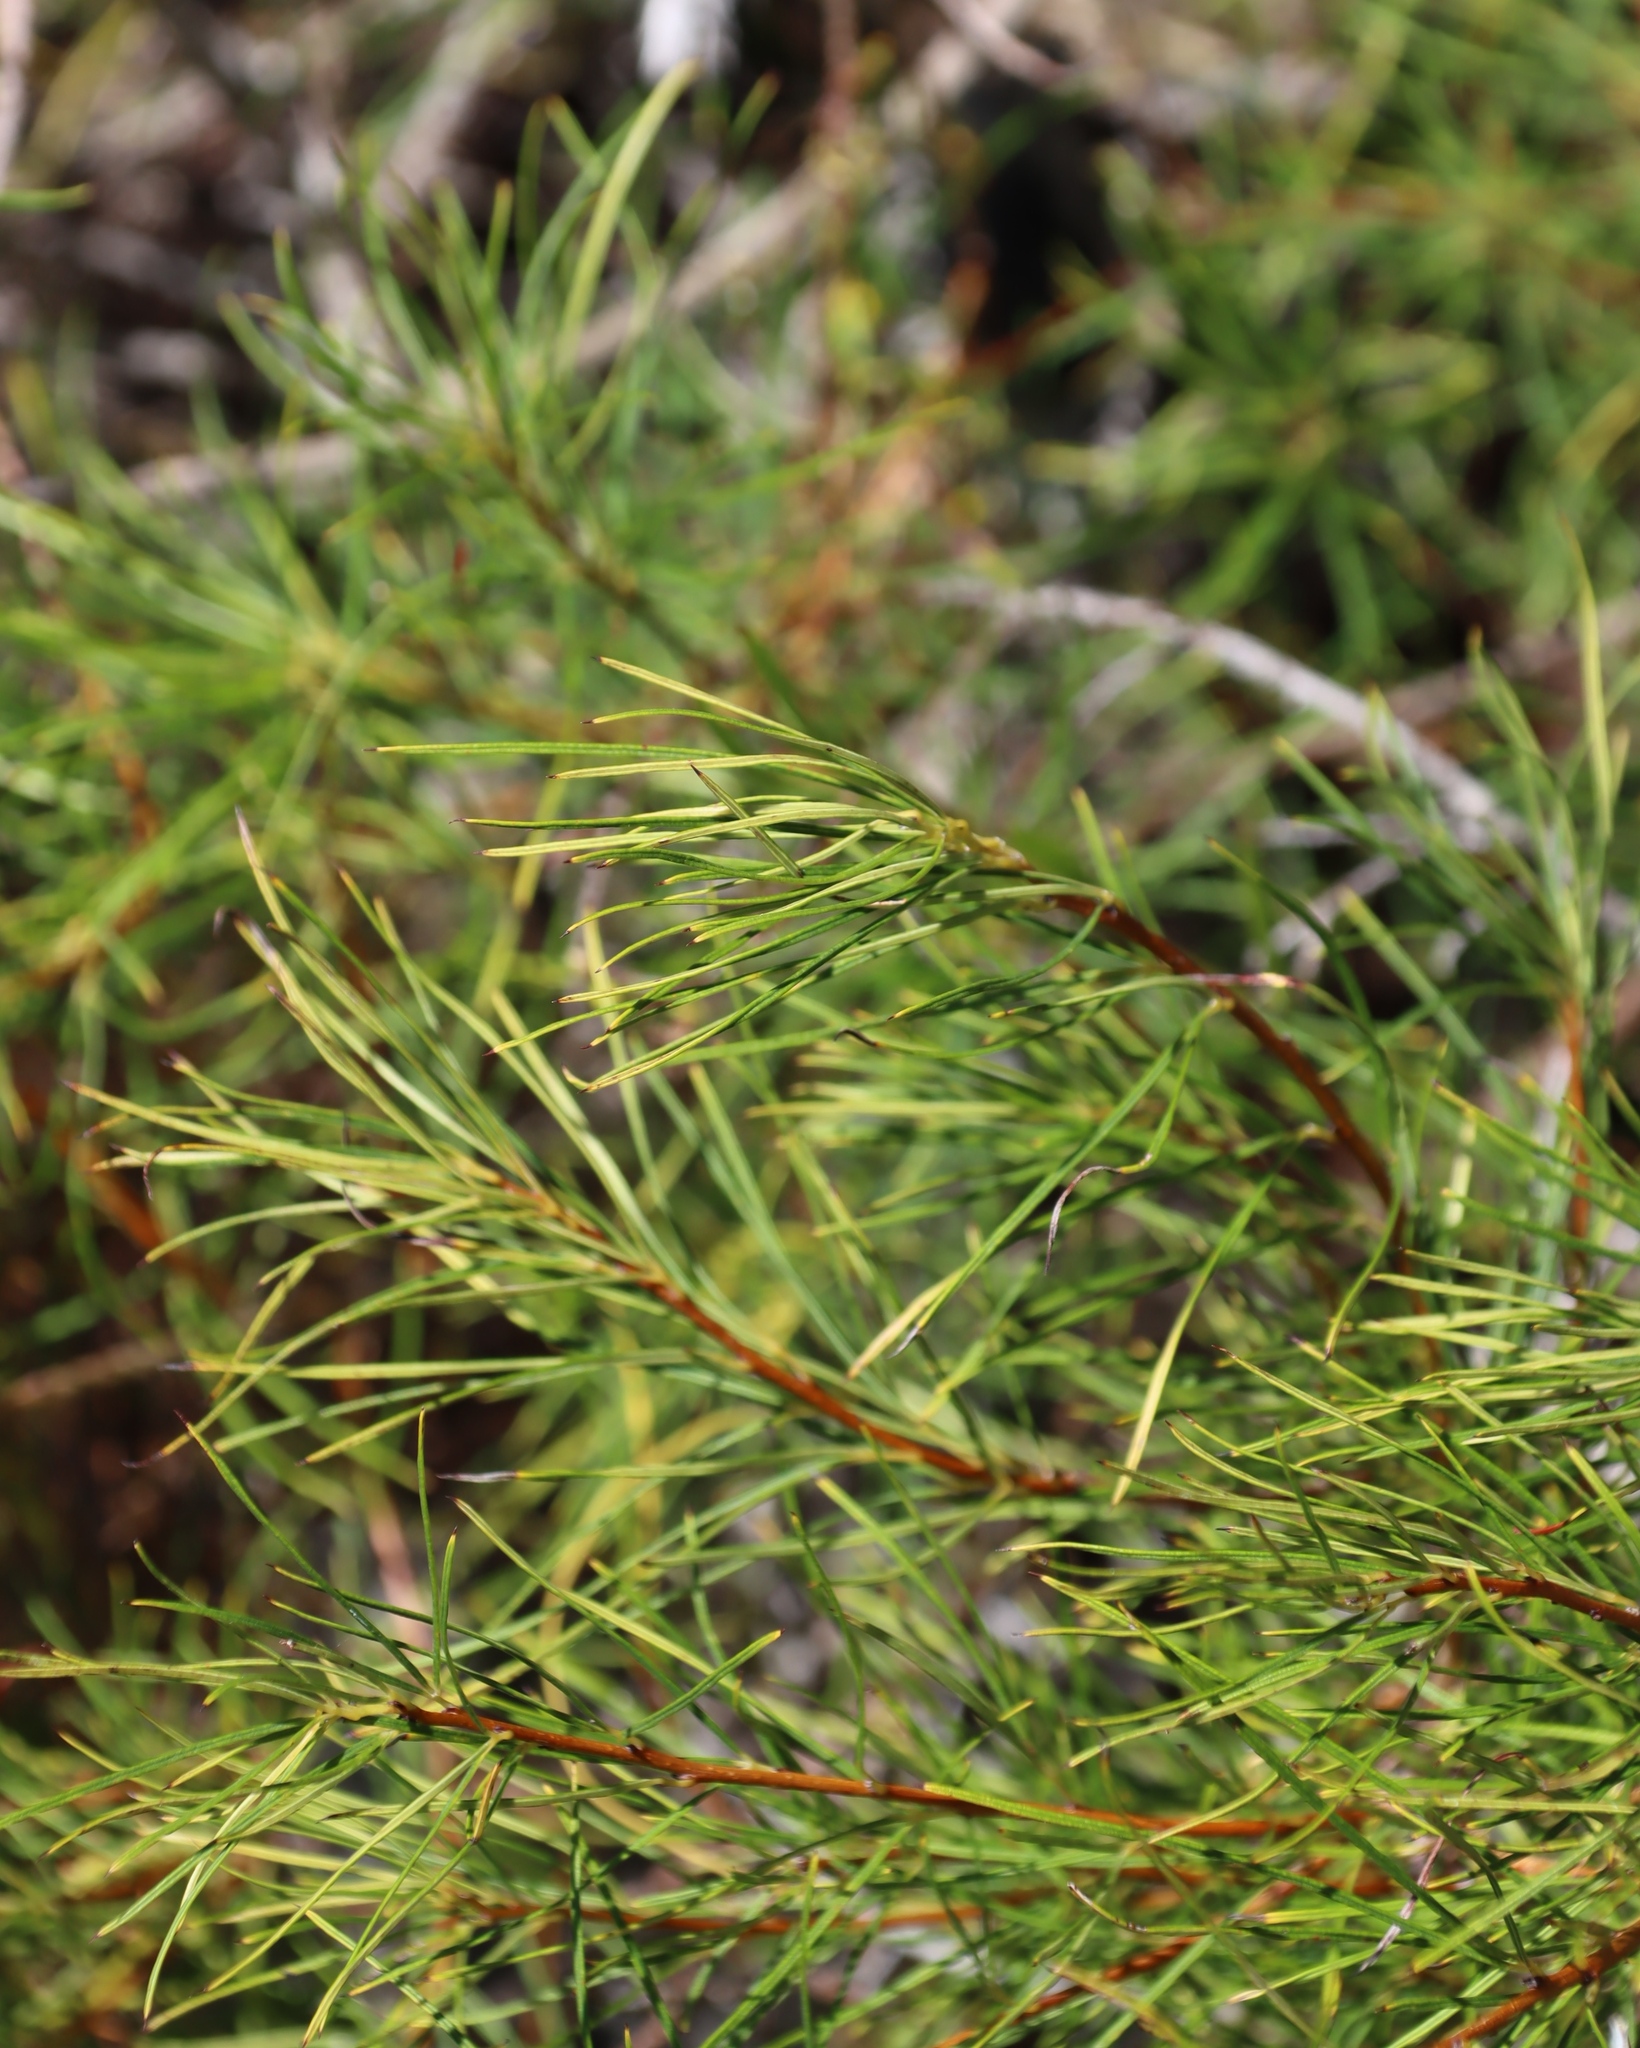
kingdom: Plantae
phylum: Tracheophyta
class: Magnoliopsida
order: Sapindales
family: Anacardiaceae
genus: Searsia
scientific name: Searsia rosmarinifolia
